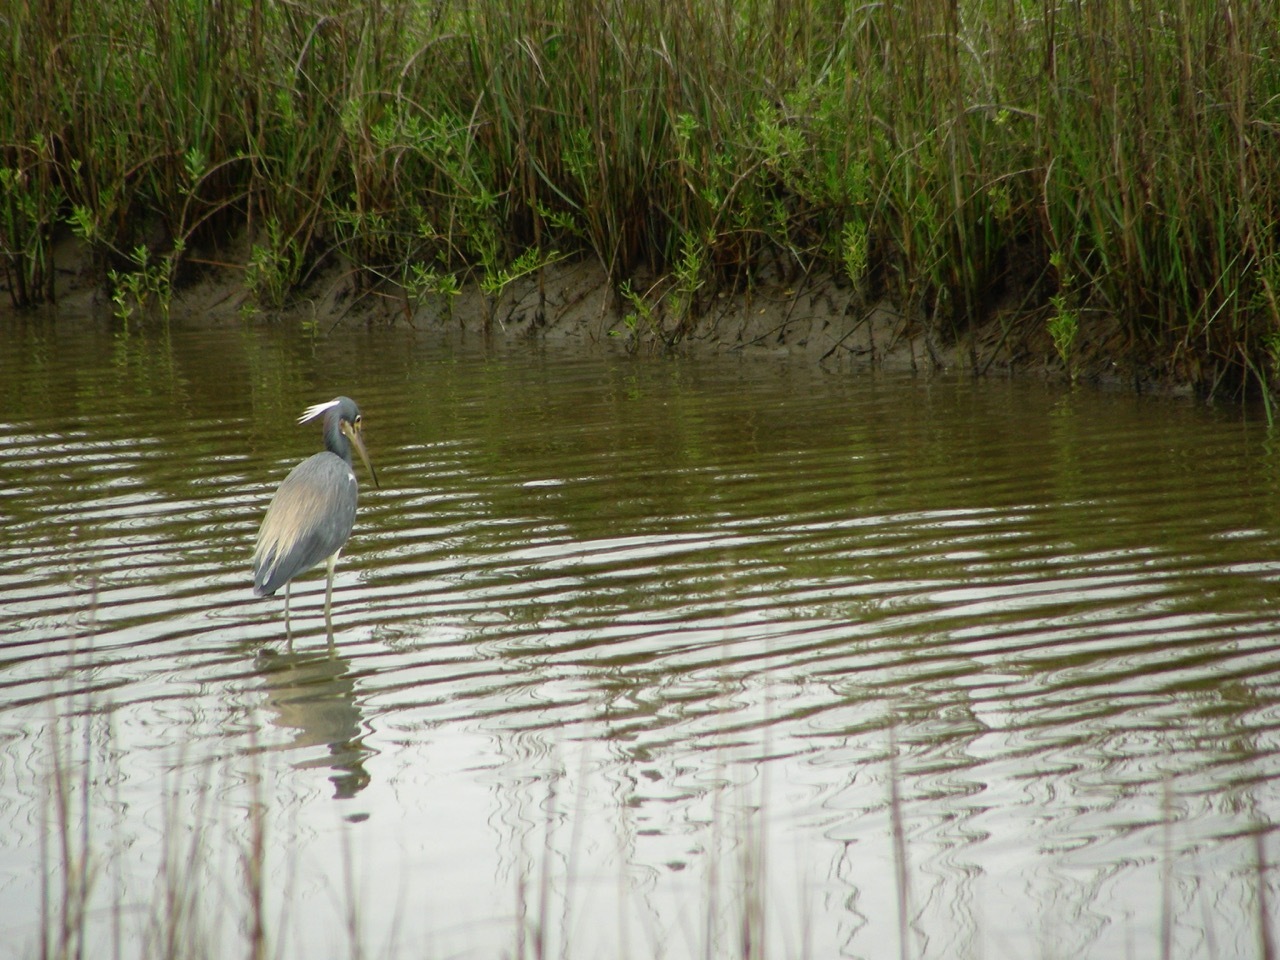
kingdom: Animalia
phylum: Chordata
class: Aves
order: Pelecaniformes
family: Ardeidae
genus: Egretta
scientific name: Egretta tricolor
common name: Tricolored heron
